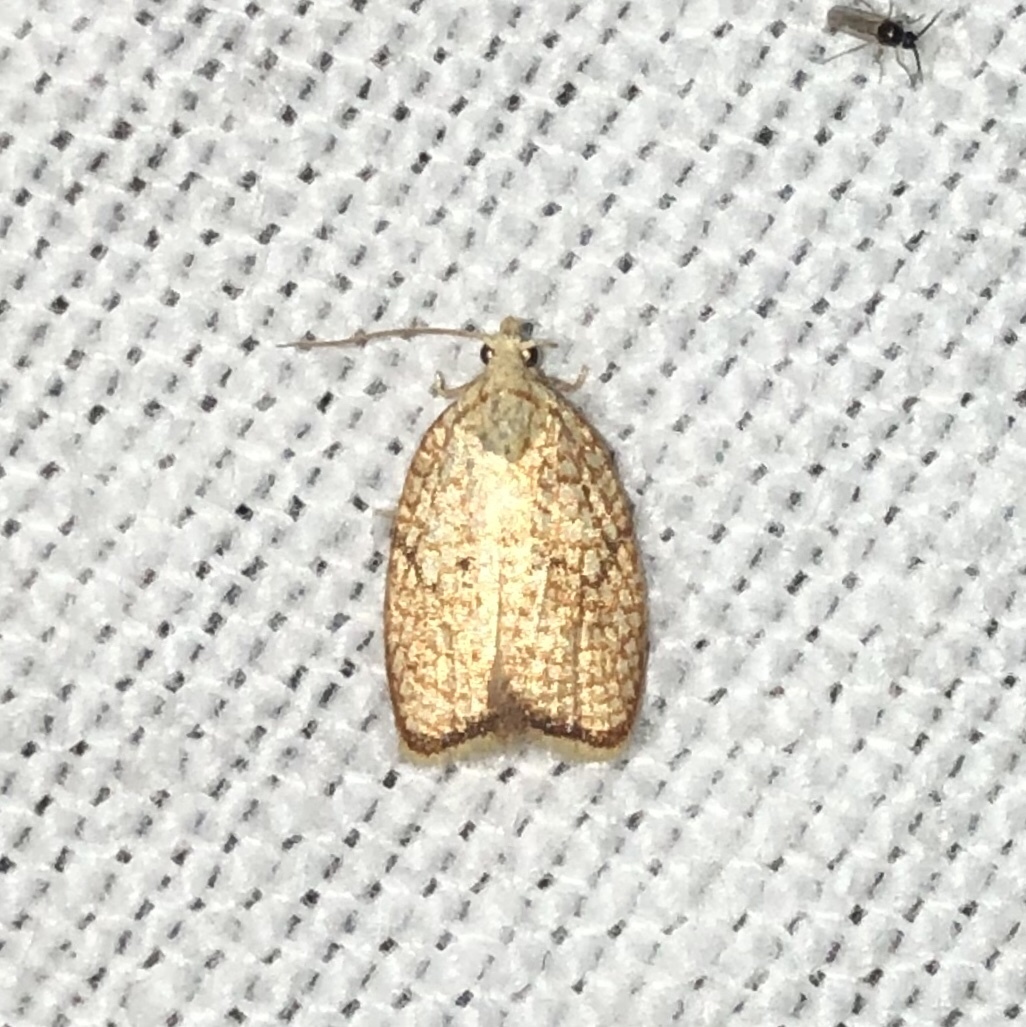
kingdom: Animalia
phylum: Arthropoda
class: Insecta
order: Lepidoptera
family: Tortricidae
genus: Acleris
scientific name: Acleris forsskaleana
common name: Maple button
